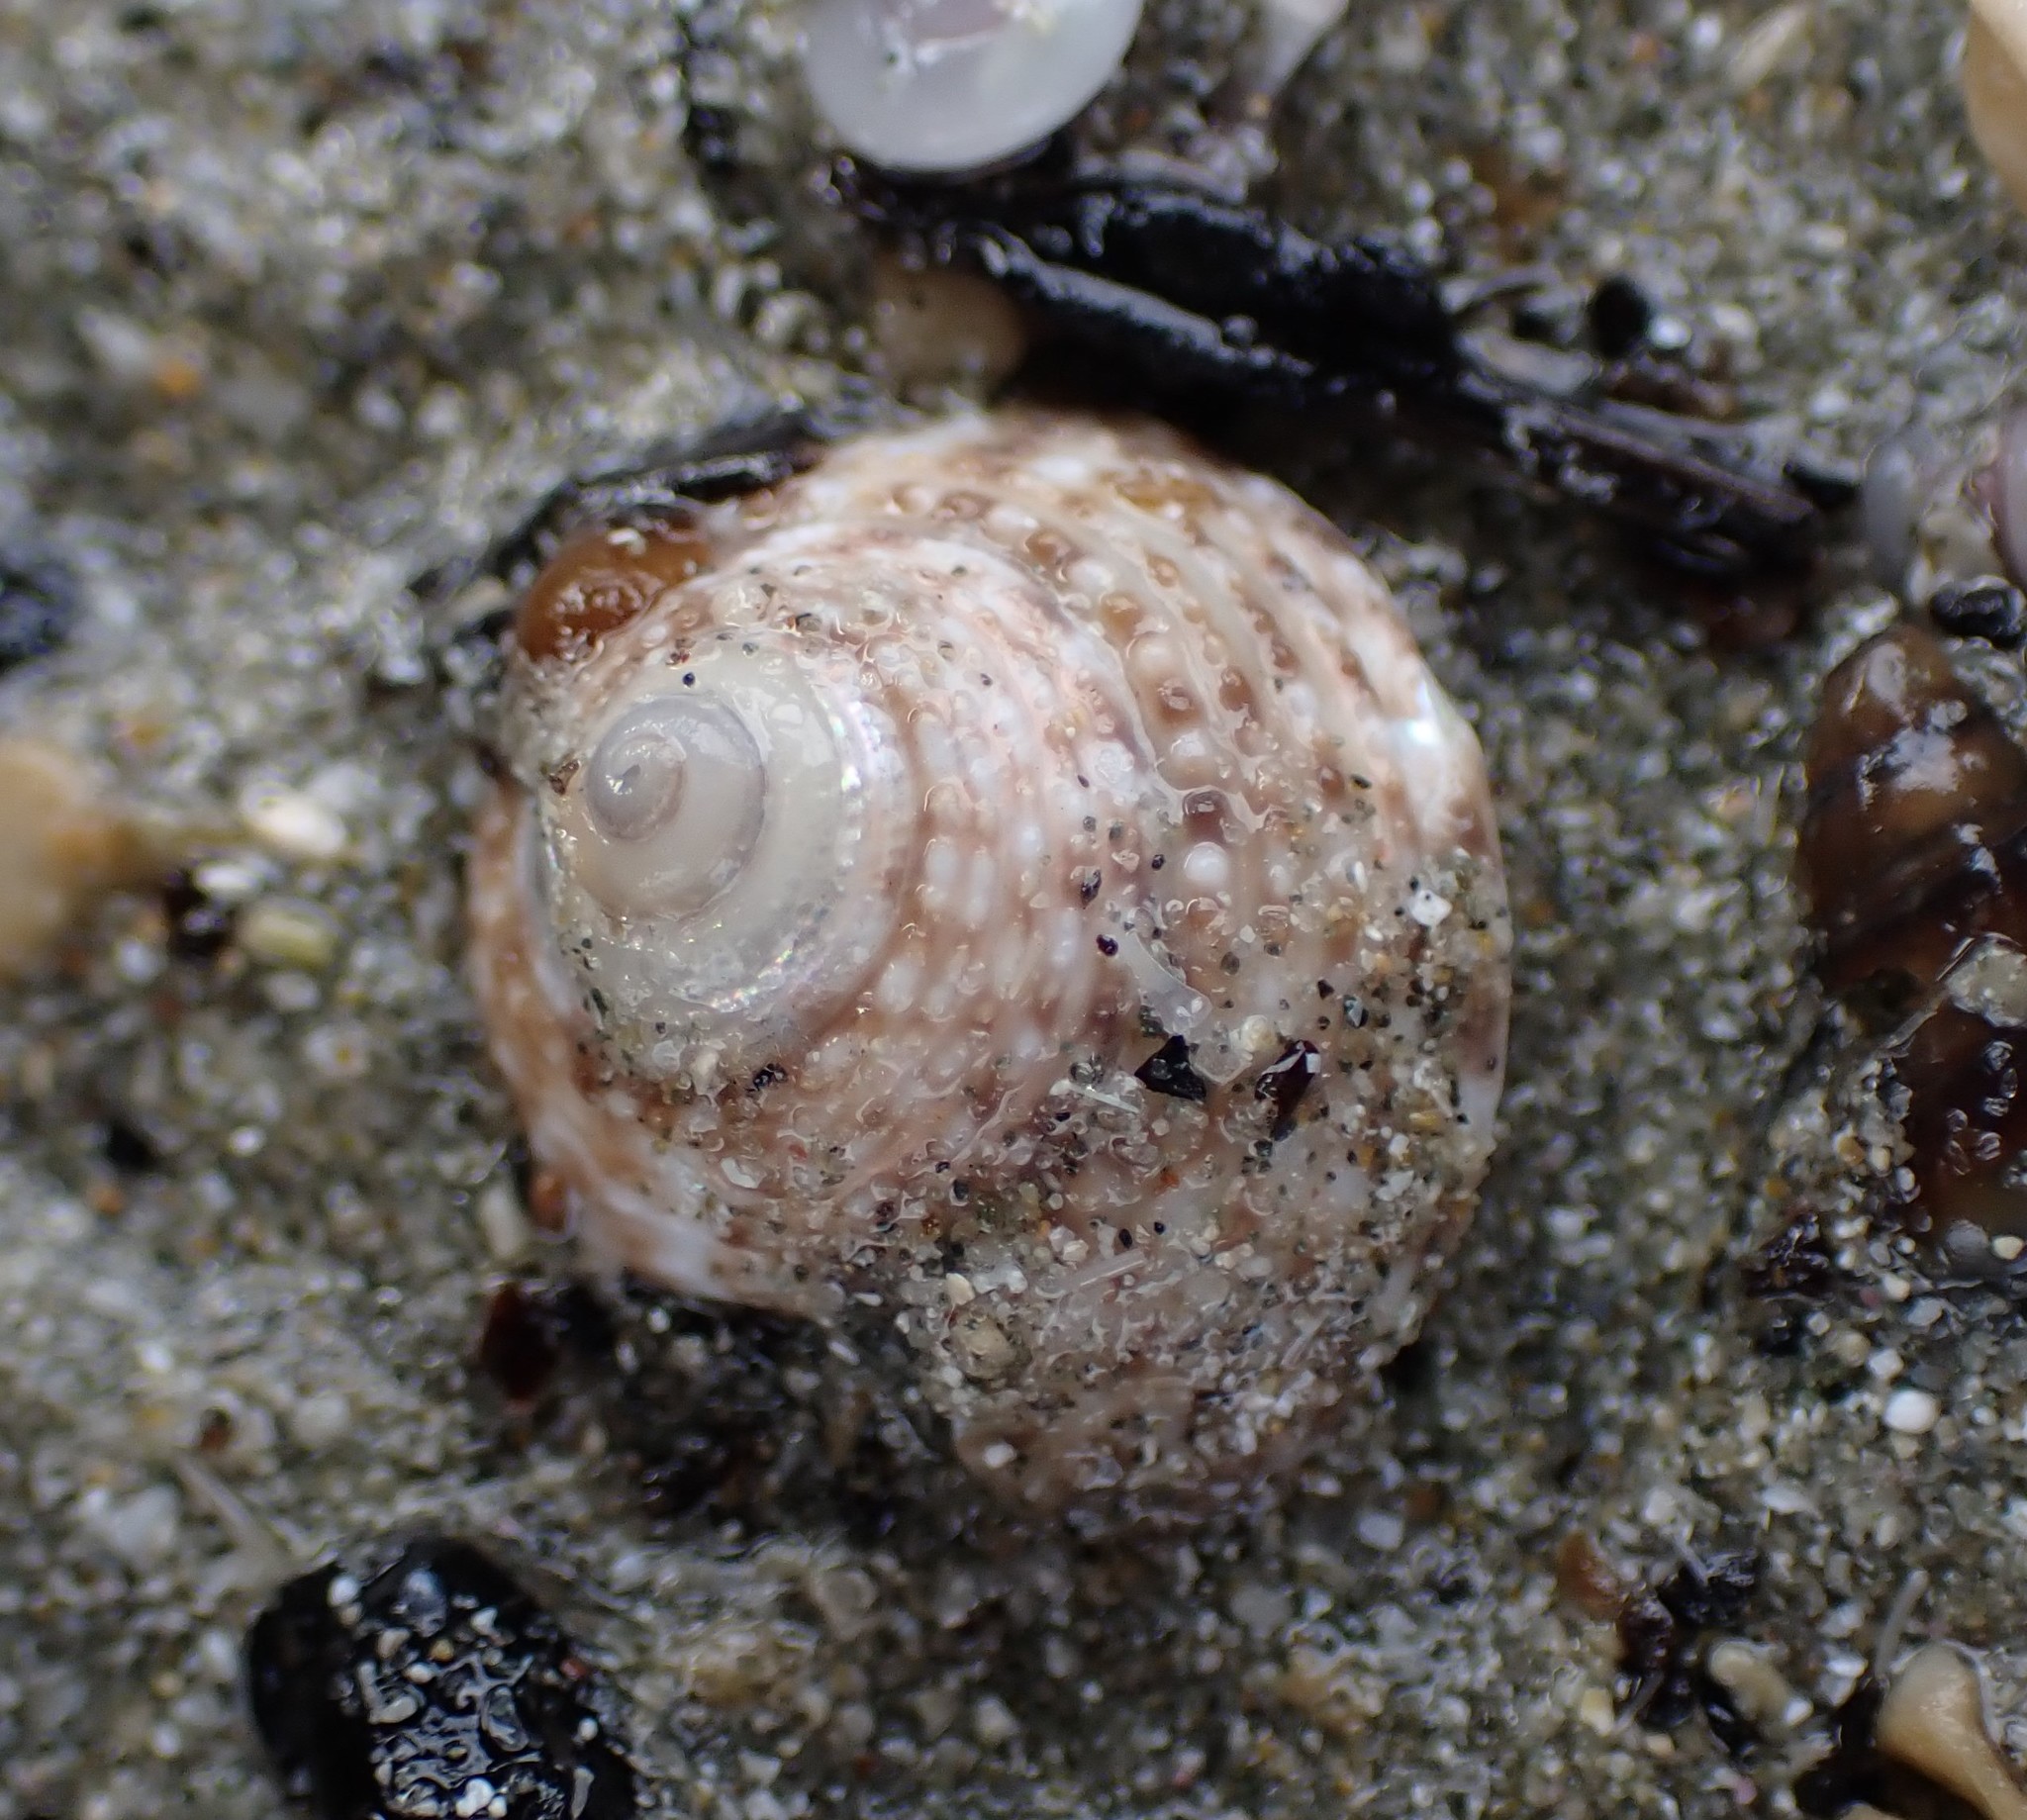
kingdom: Animalia
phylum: Mollusca
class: Gastropoda
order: Trochida
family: Trochidae
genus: Coelotrochus
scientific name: Coelotrochus tiaratus
